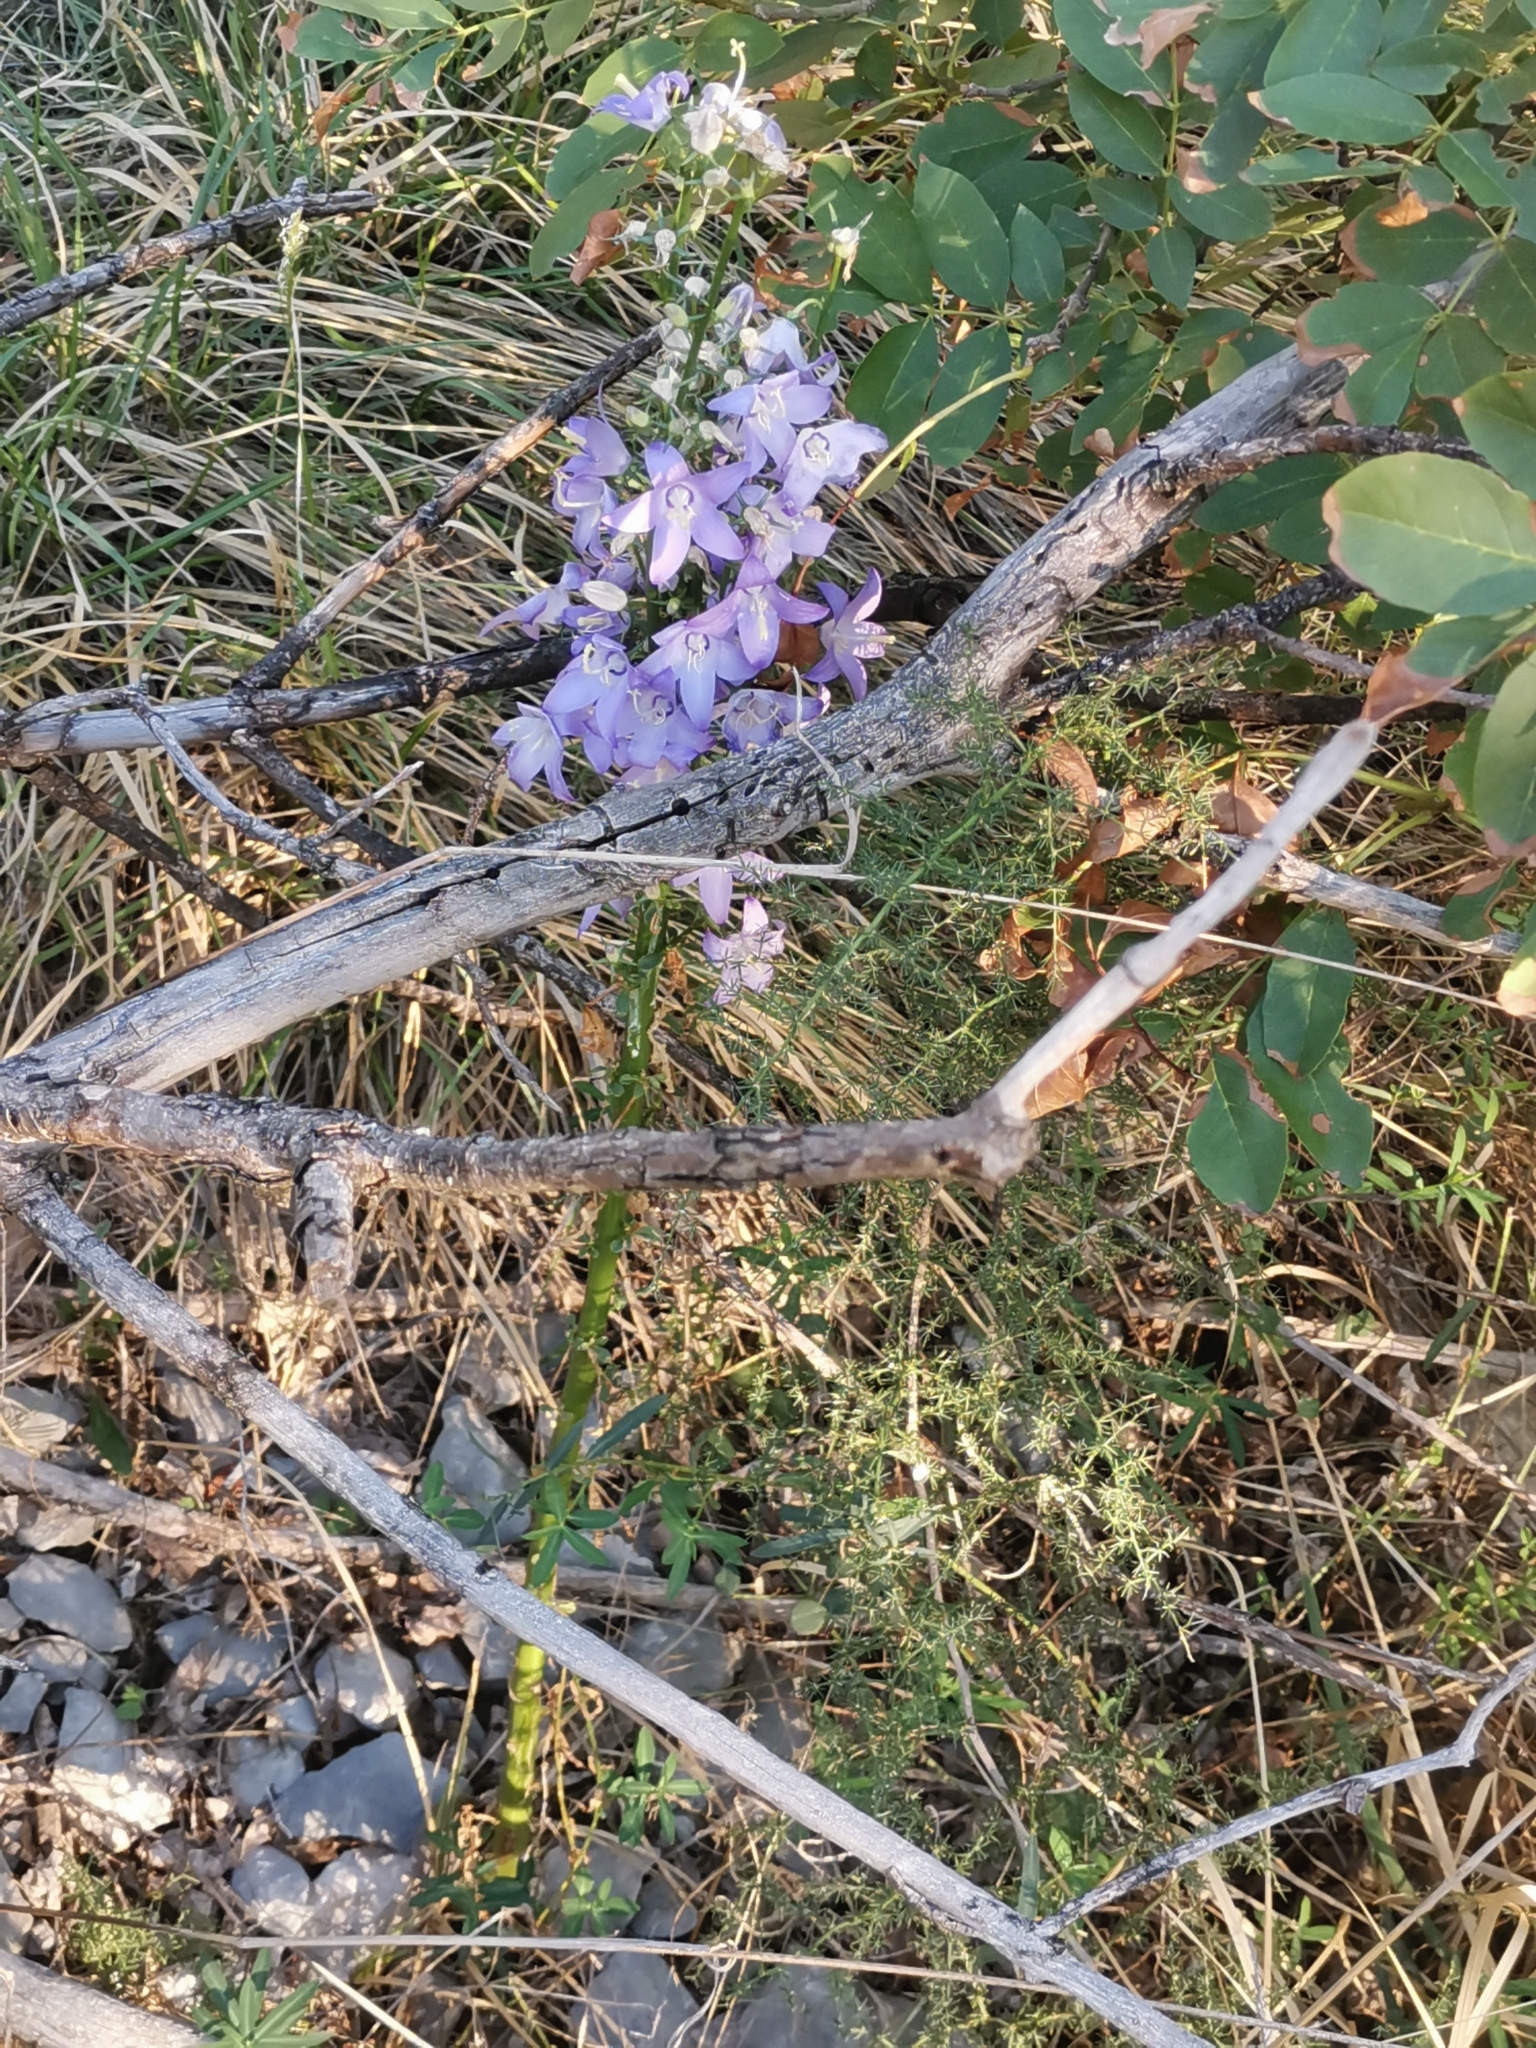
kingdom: Plantae
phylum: Tracheophyta
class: Magnoliopsida
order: Asterales
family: Campanulaceae
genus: Campanula
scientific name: Campanula pyramidalis
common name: Chimney bellflower
